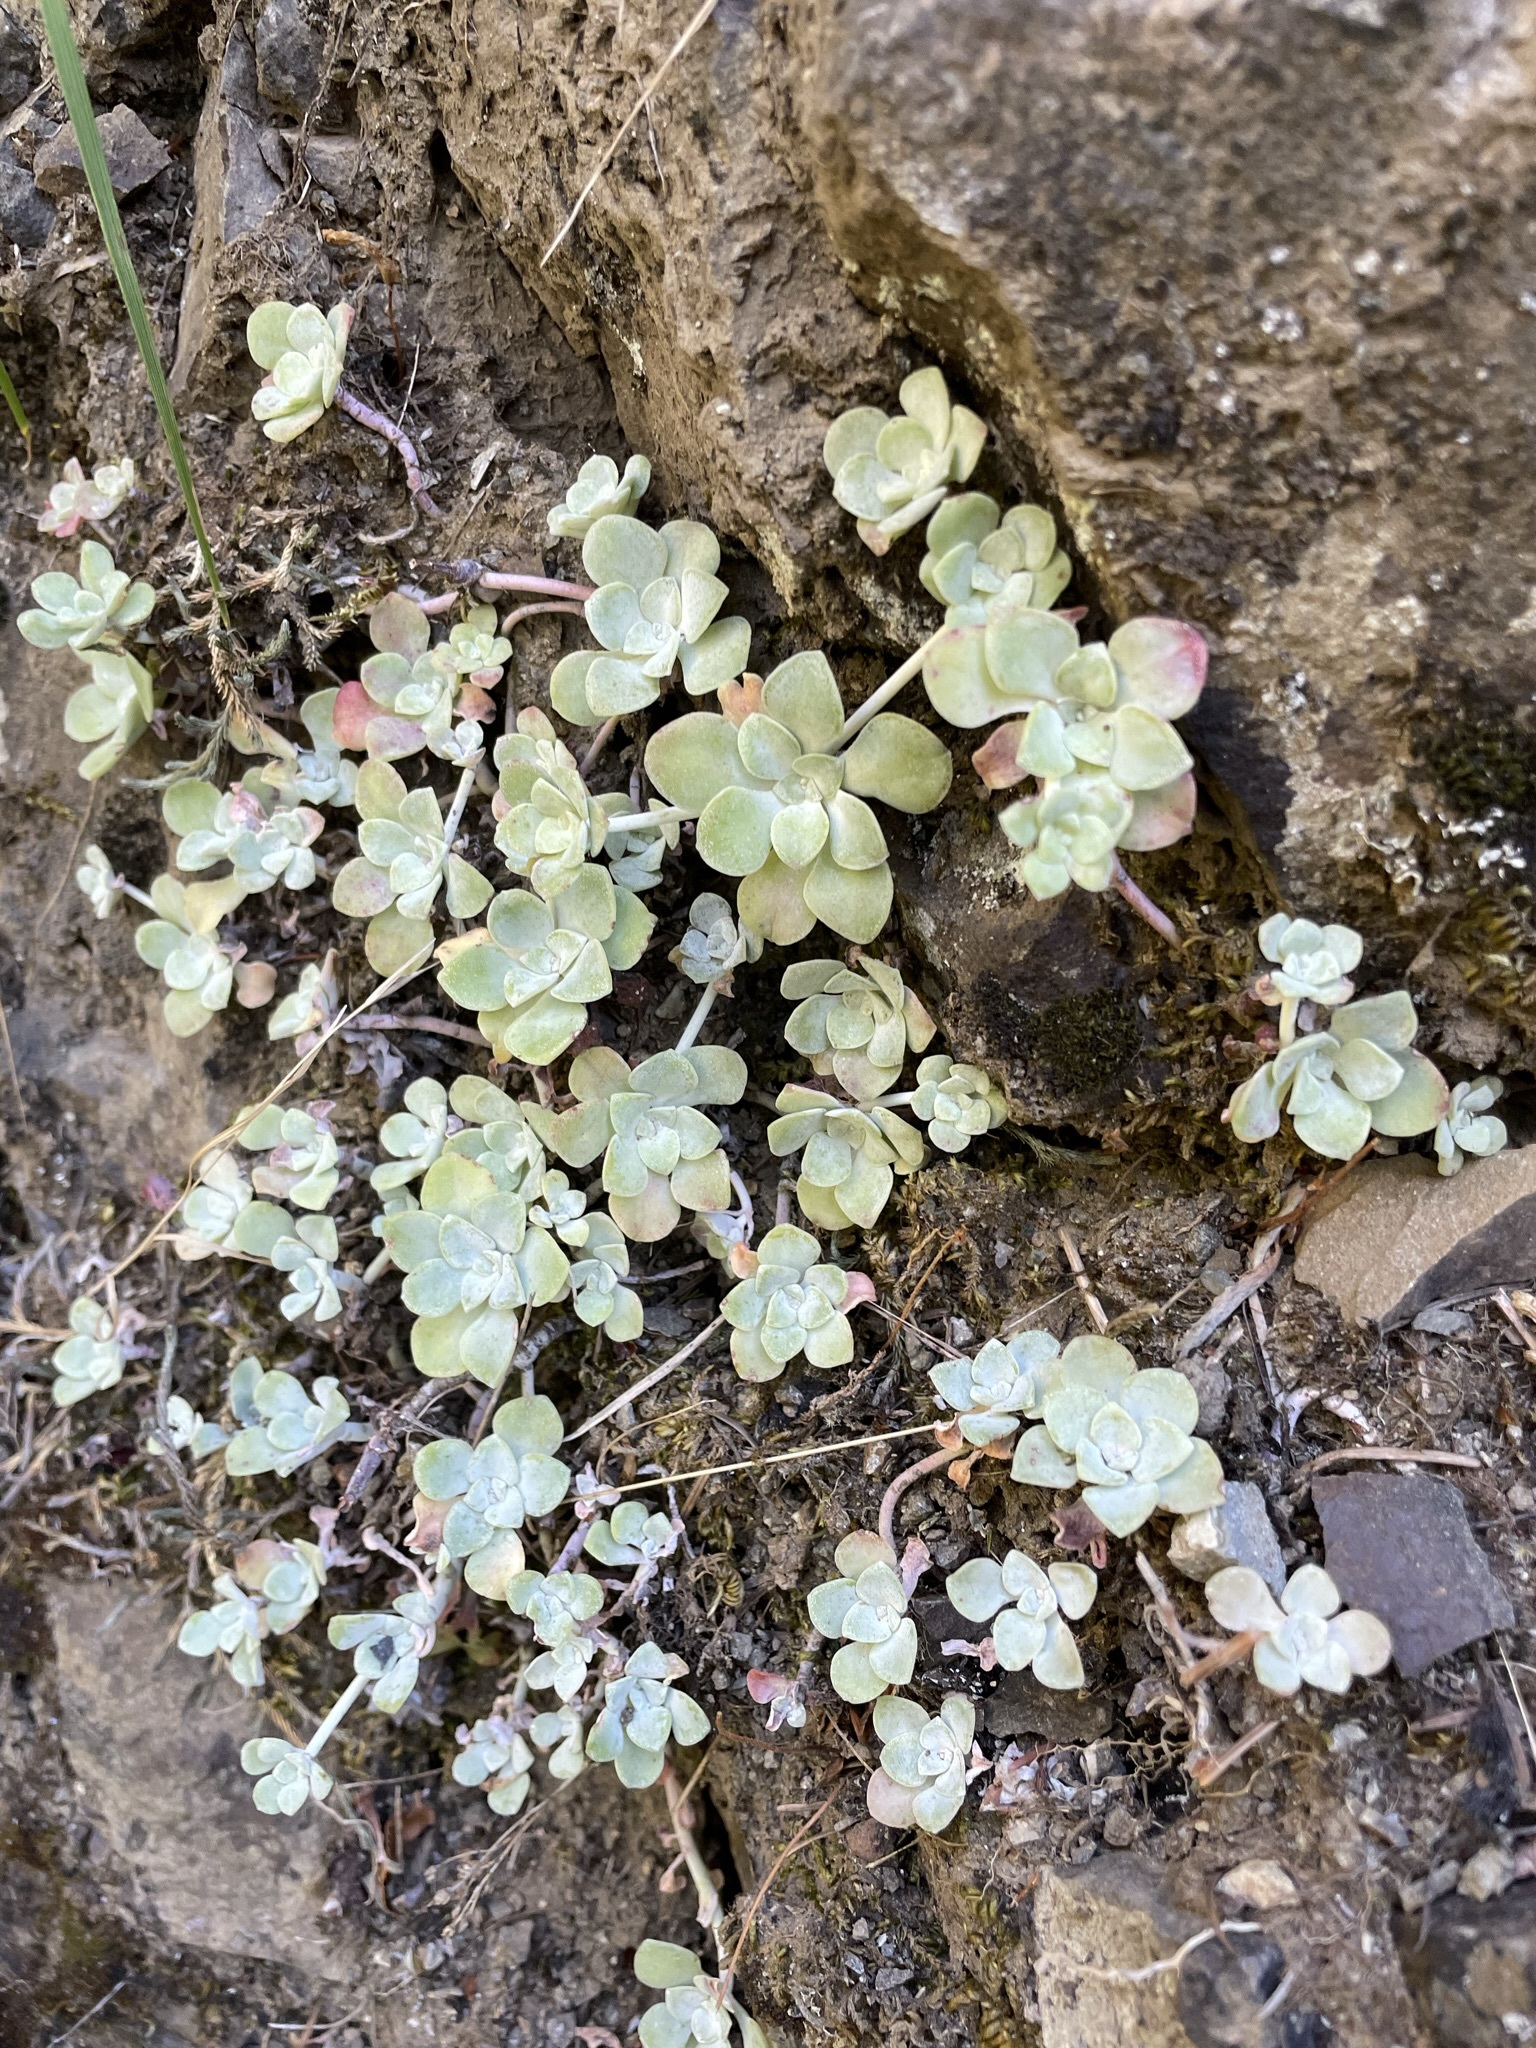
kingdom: Plantae
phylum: Tracheophyta
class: Magnoliopsida
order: Saxifragales
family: Crassulaceae
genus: Sedum
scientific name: Sedum spathulifolium
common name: Colorado stonecrop
